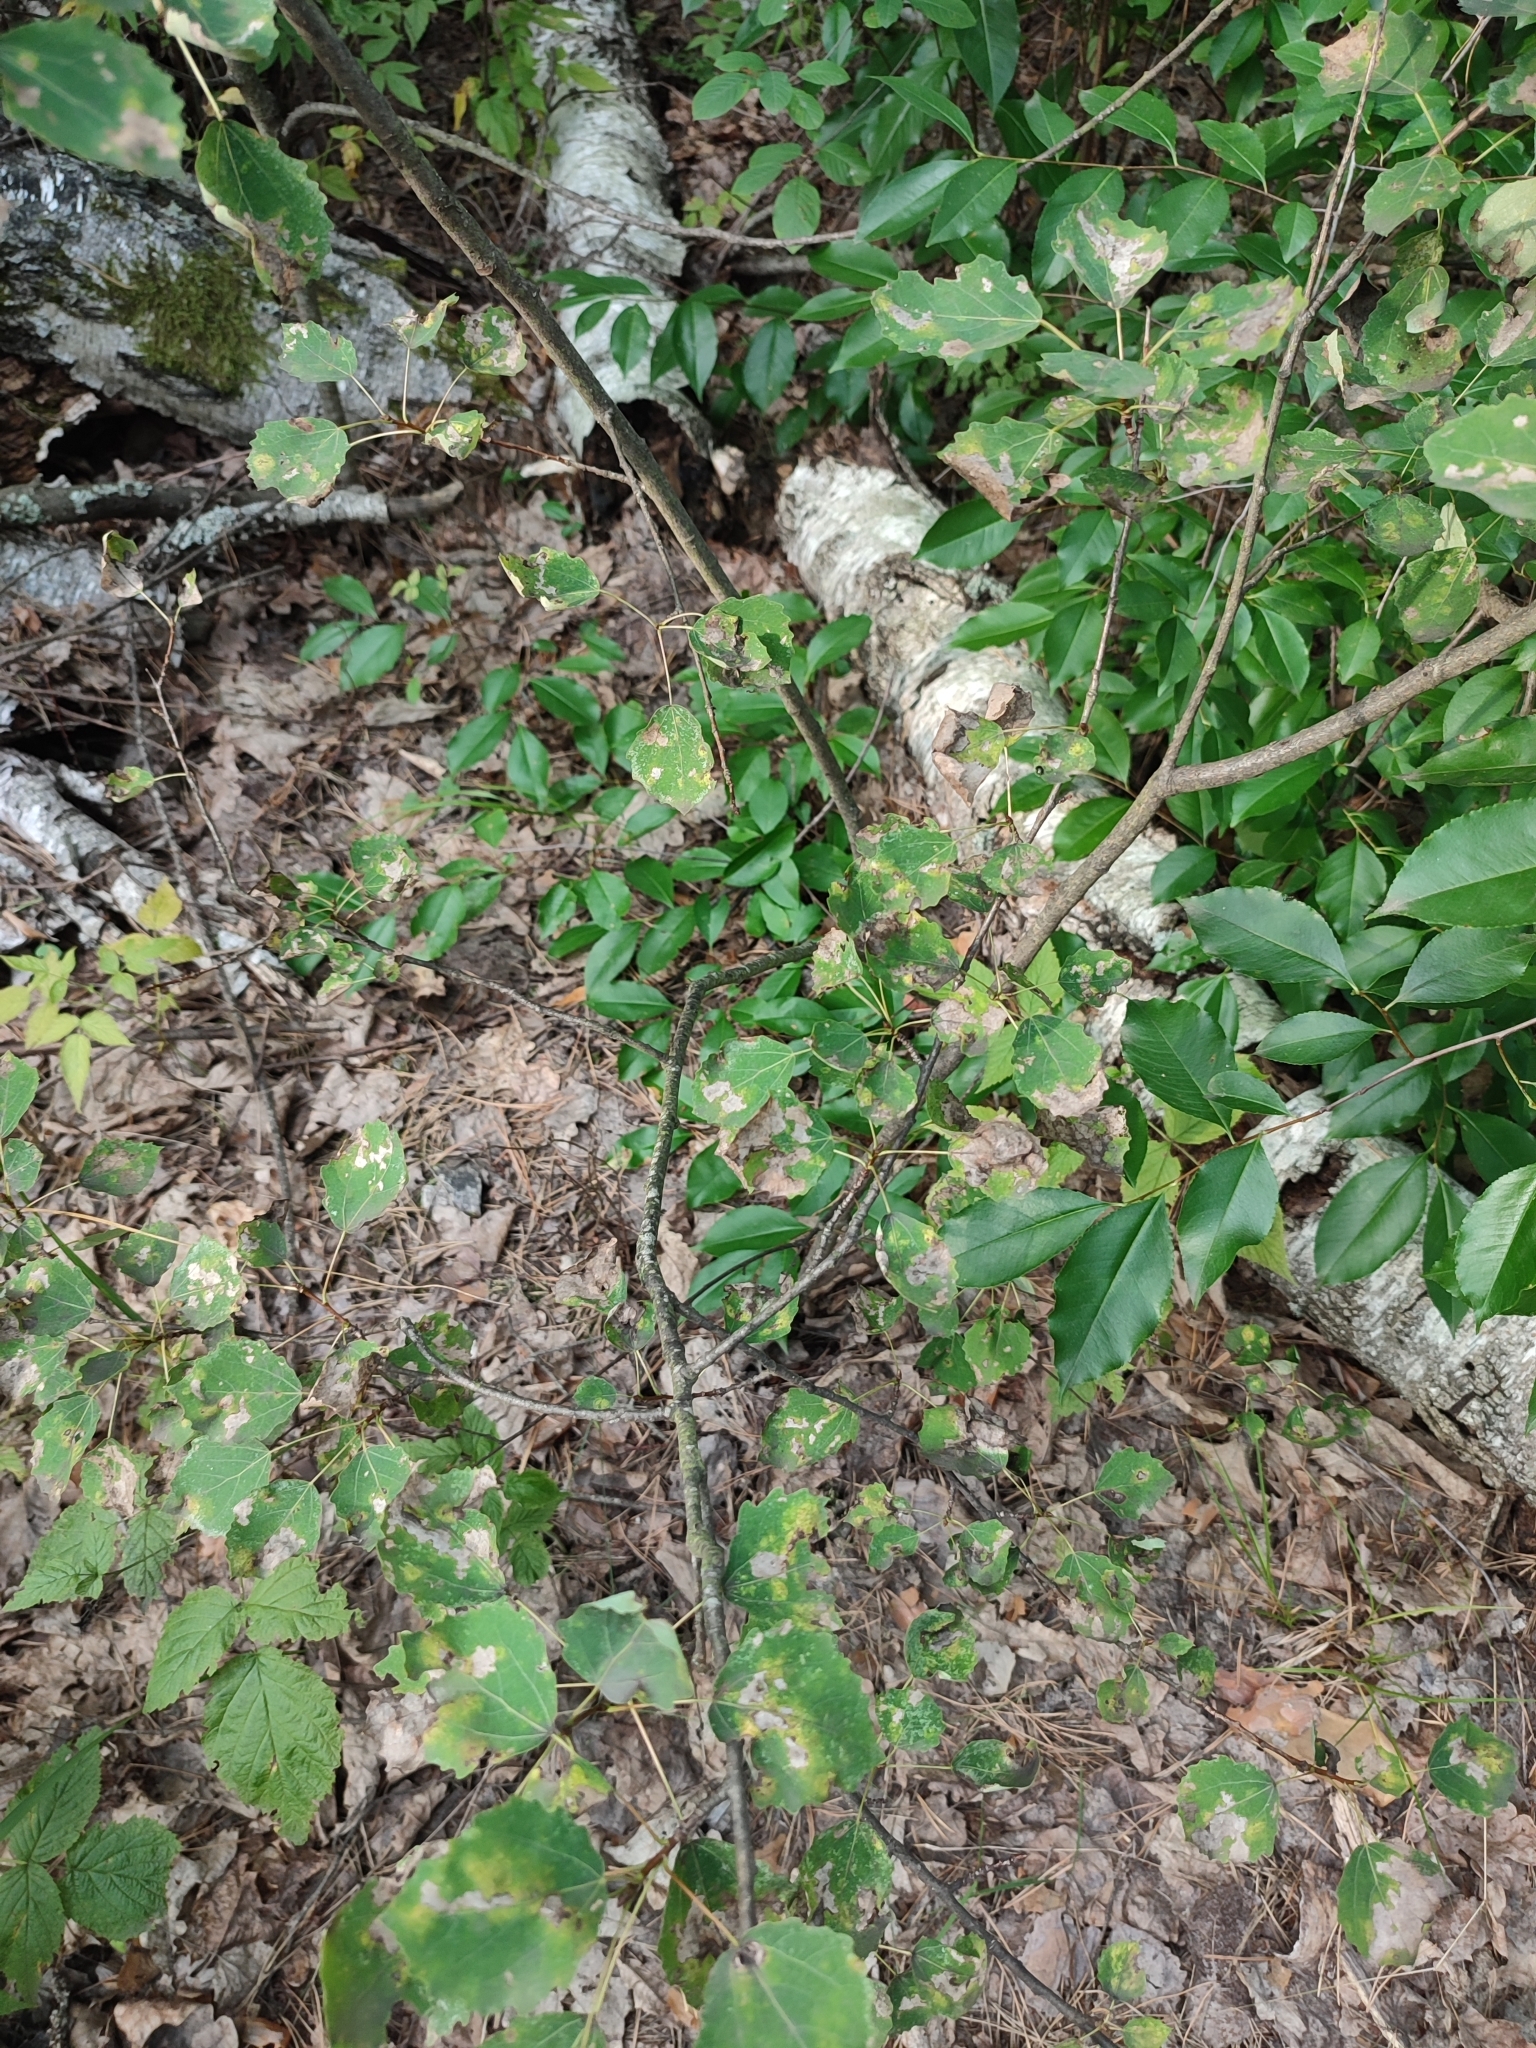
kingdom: Plantae
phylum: Tracheophyta
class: Magnoliopsida
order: Malpighiales
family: Salicaceae
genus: Populus
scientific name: Populus tremula
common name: European aspen
